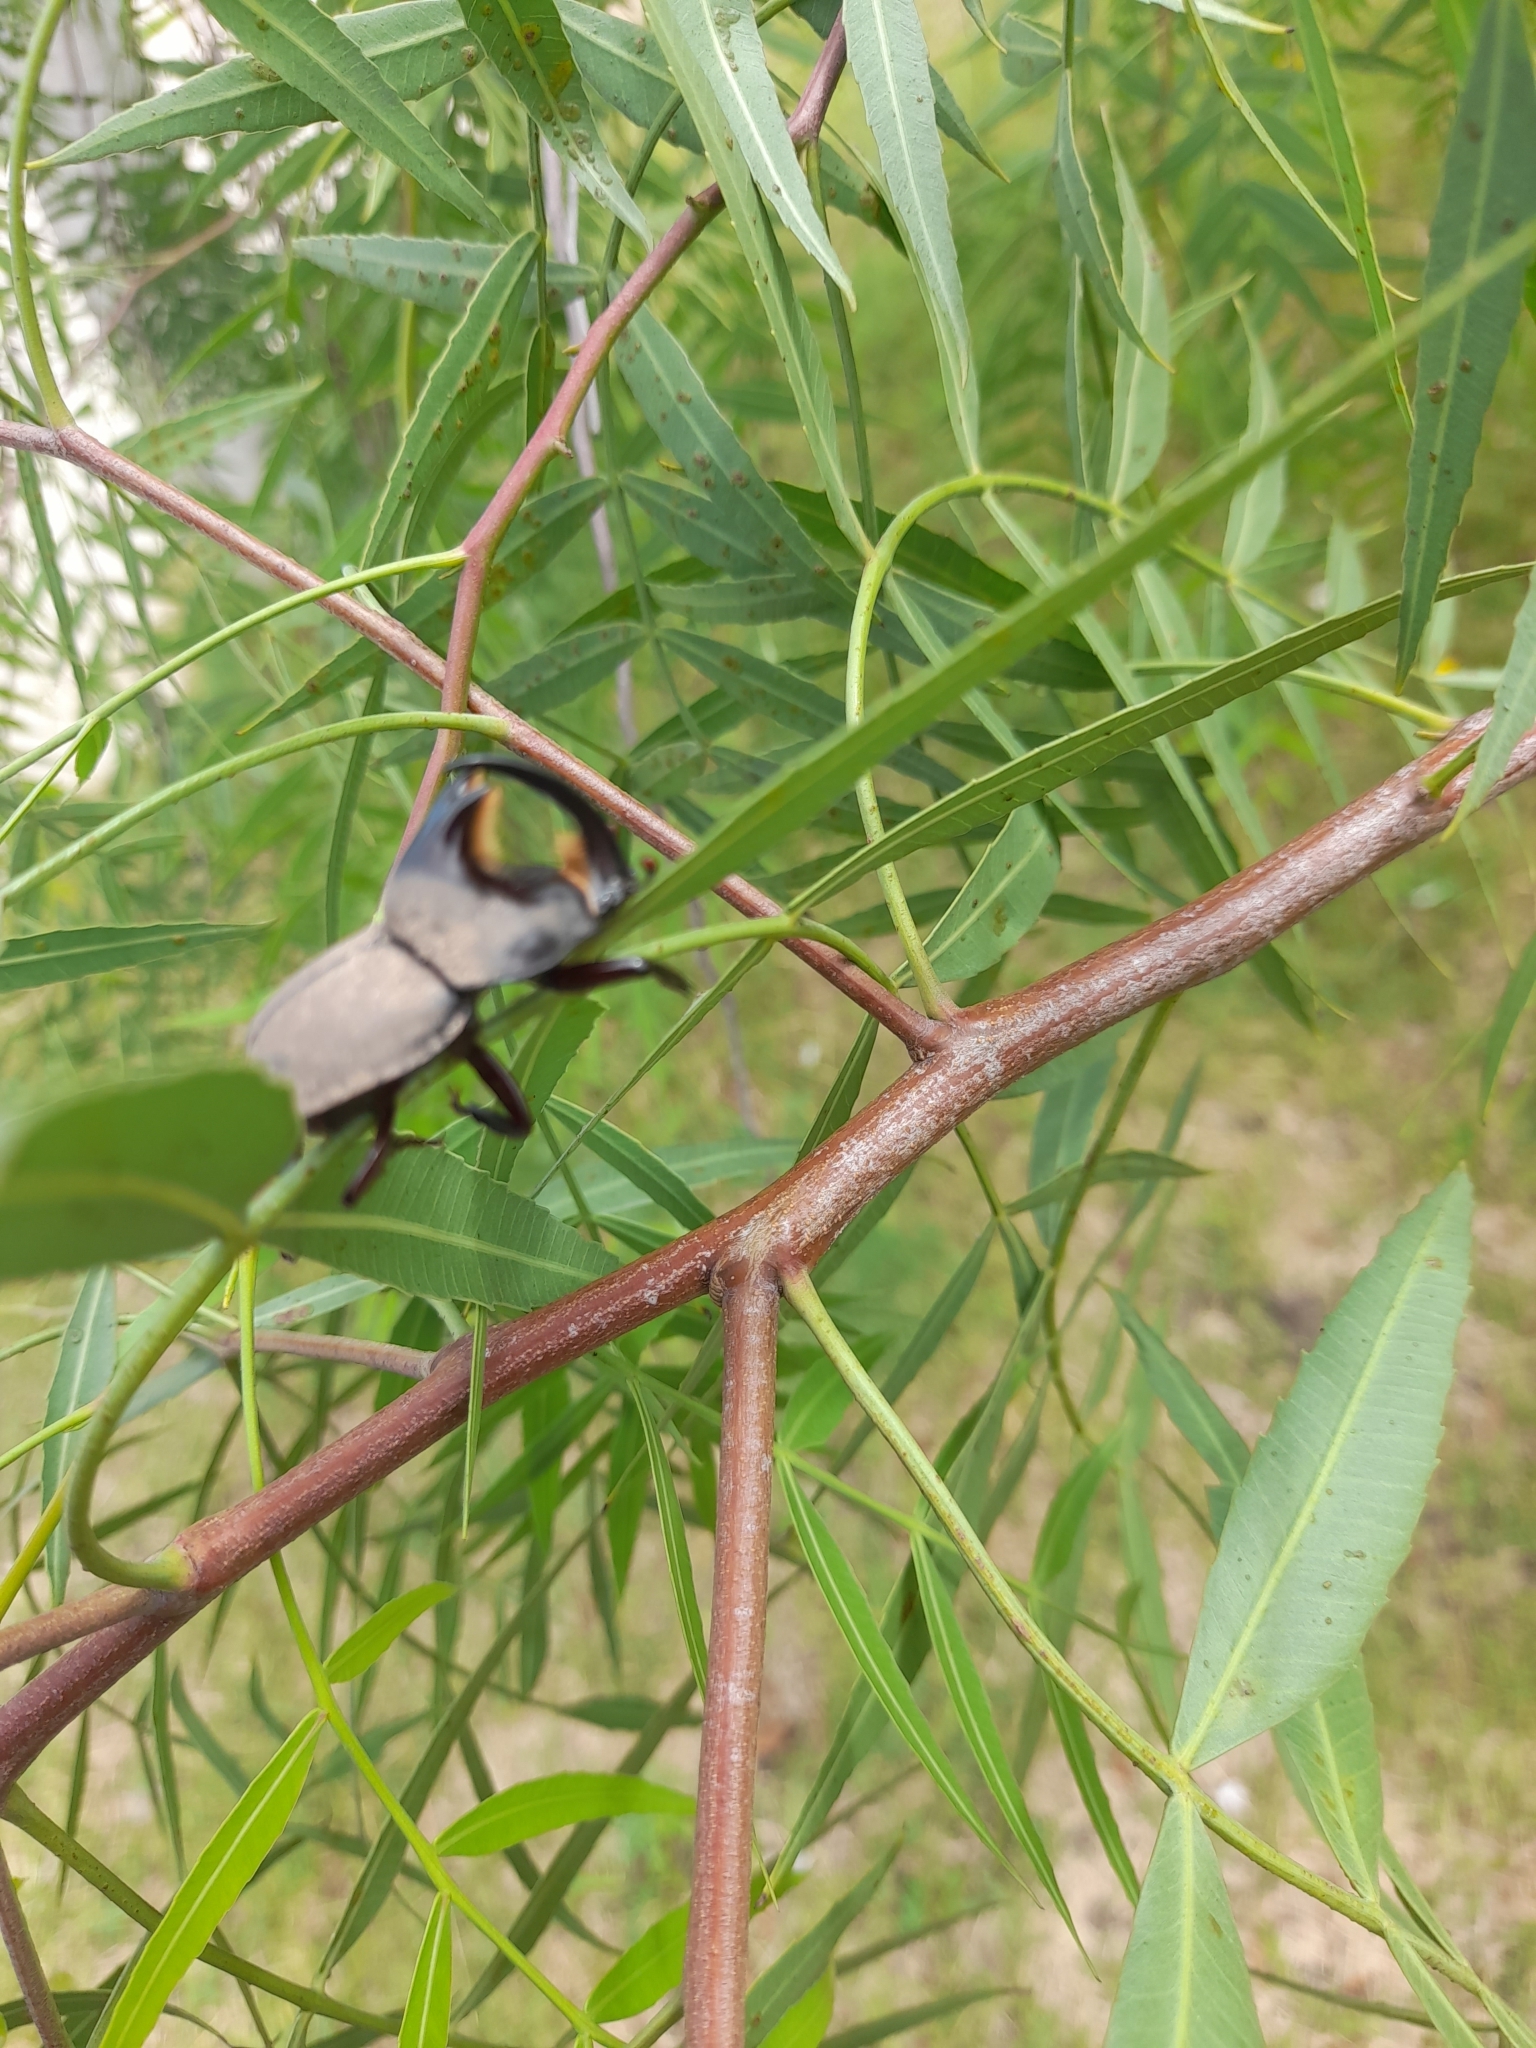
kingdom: Animalia
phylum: Arthropoda
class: Insecta
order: Coleoptera
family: Scarabaeidae
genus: Diloboderus
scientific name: Diloboderus abderus
